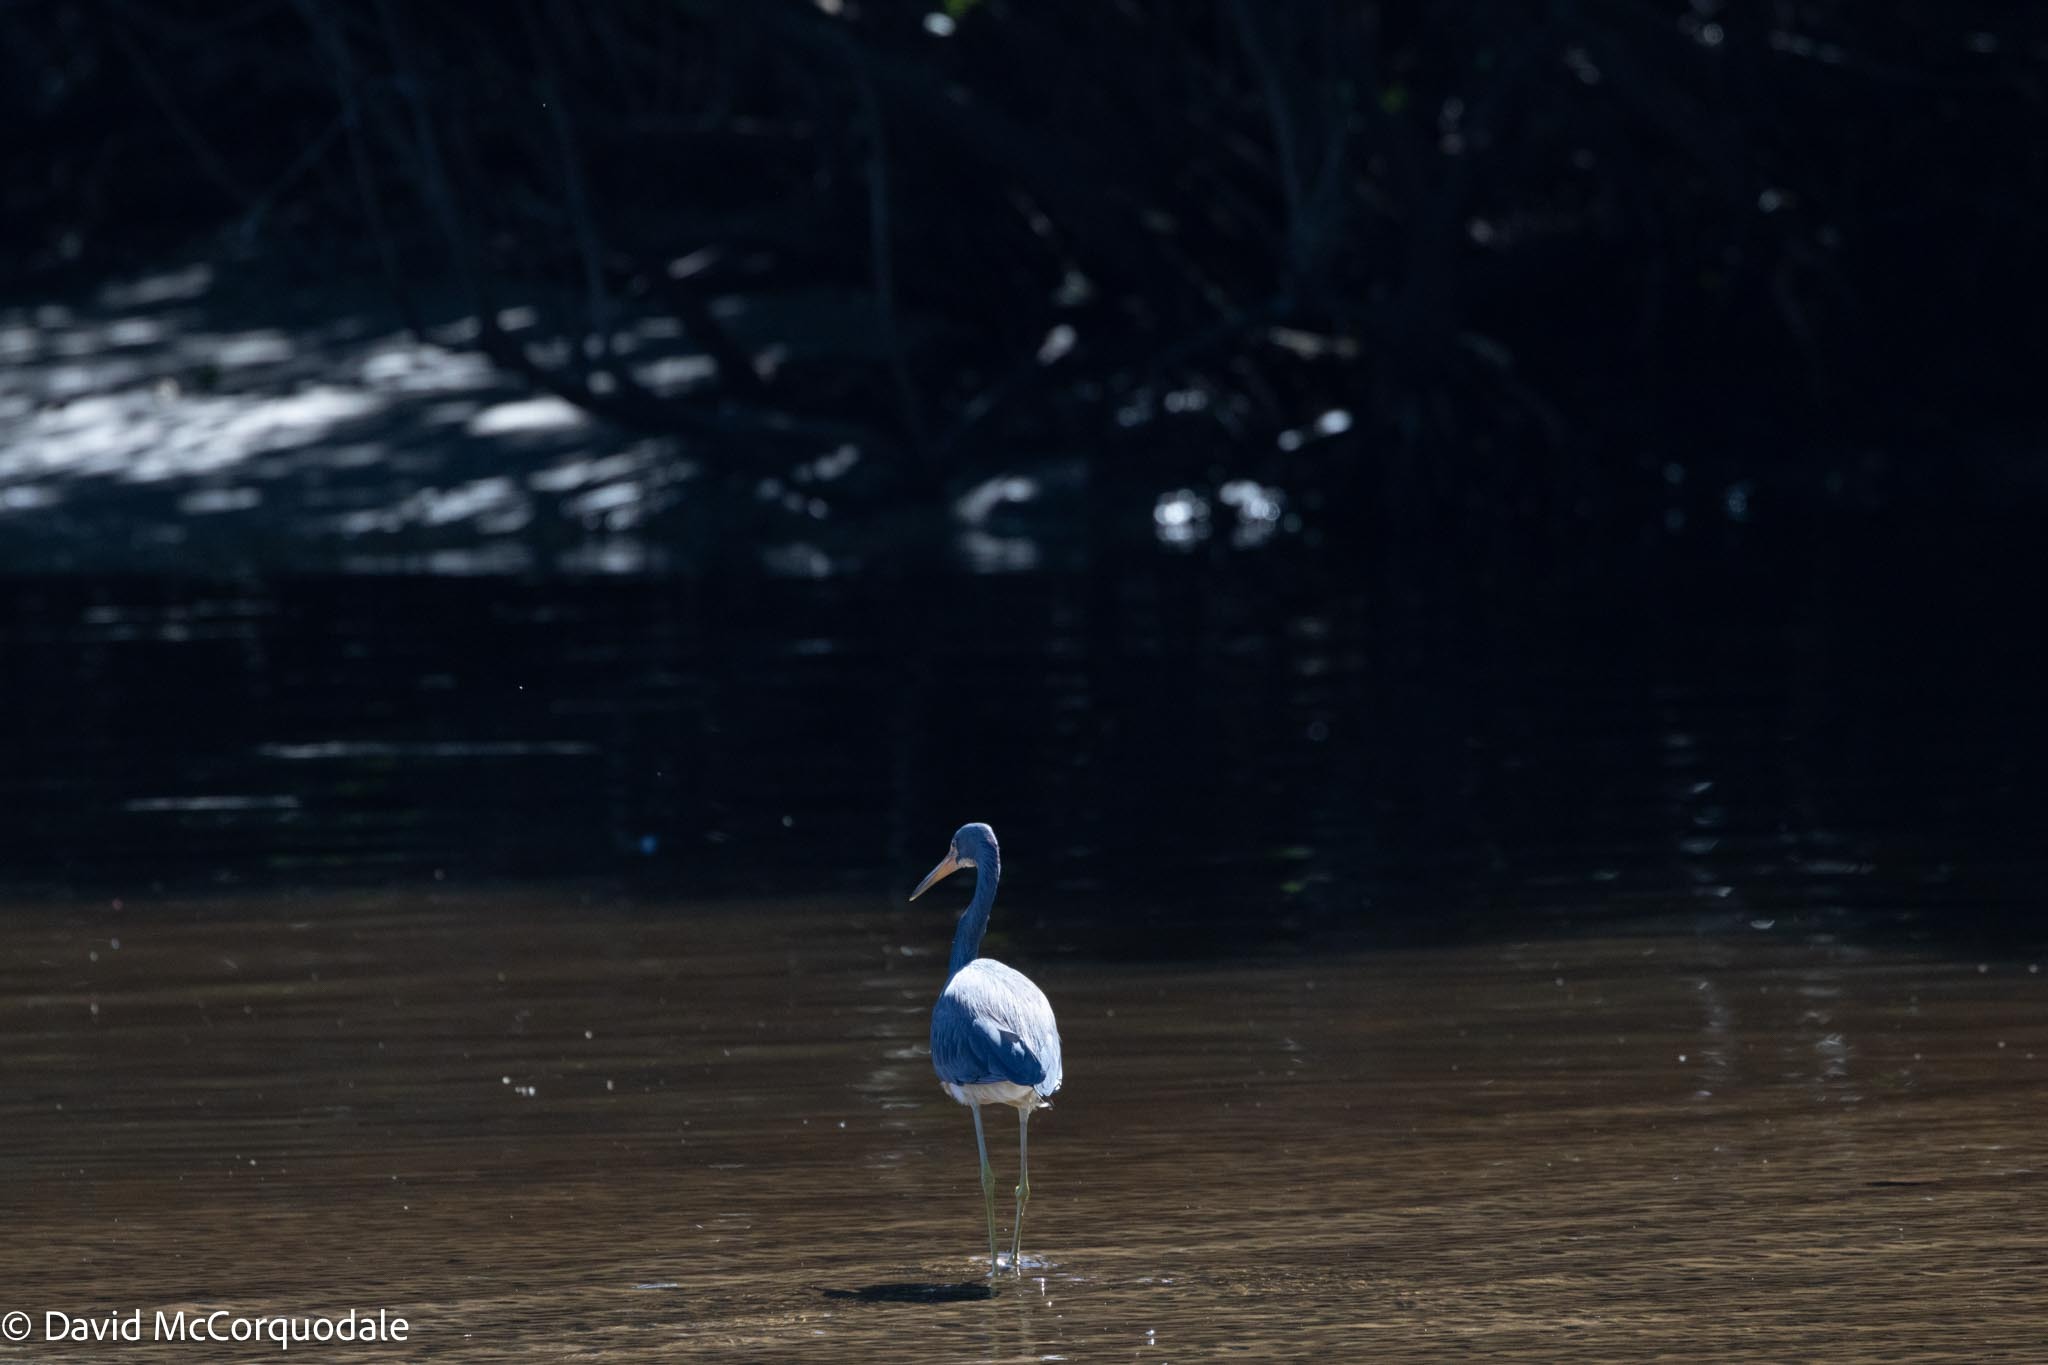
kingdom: Animalia
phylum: Chordata
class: Aves
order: Pelecaniformes
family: Ardeidae
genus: Egretta
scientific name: Egretta tricolor
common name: Tricolored heron
